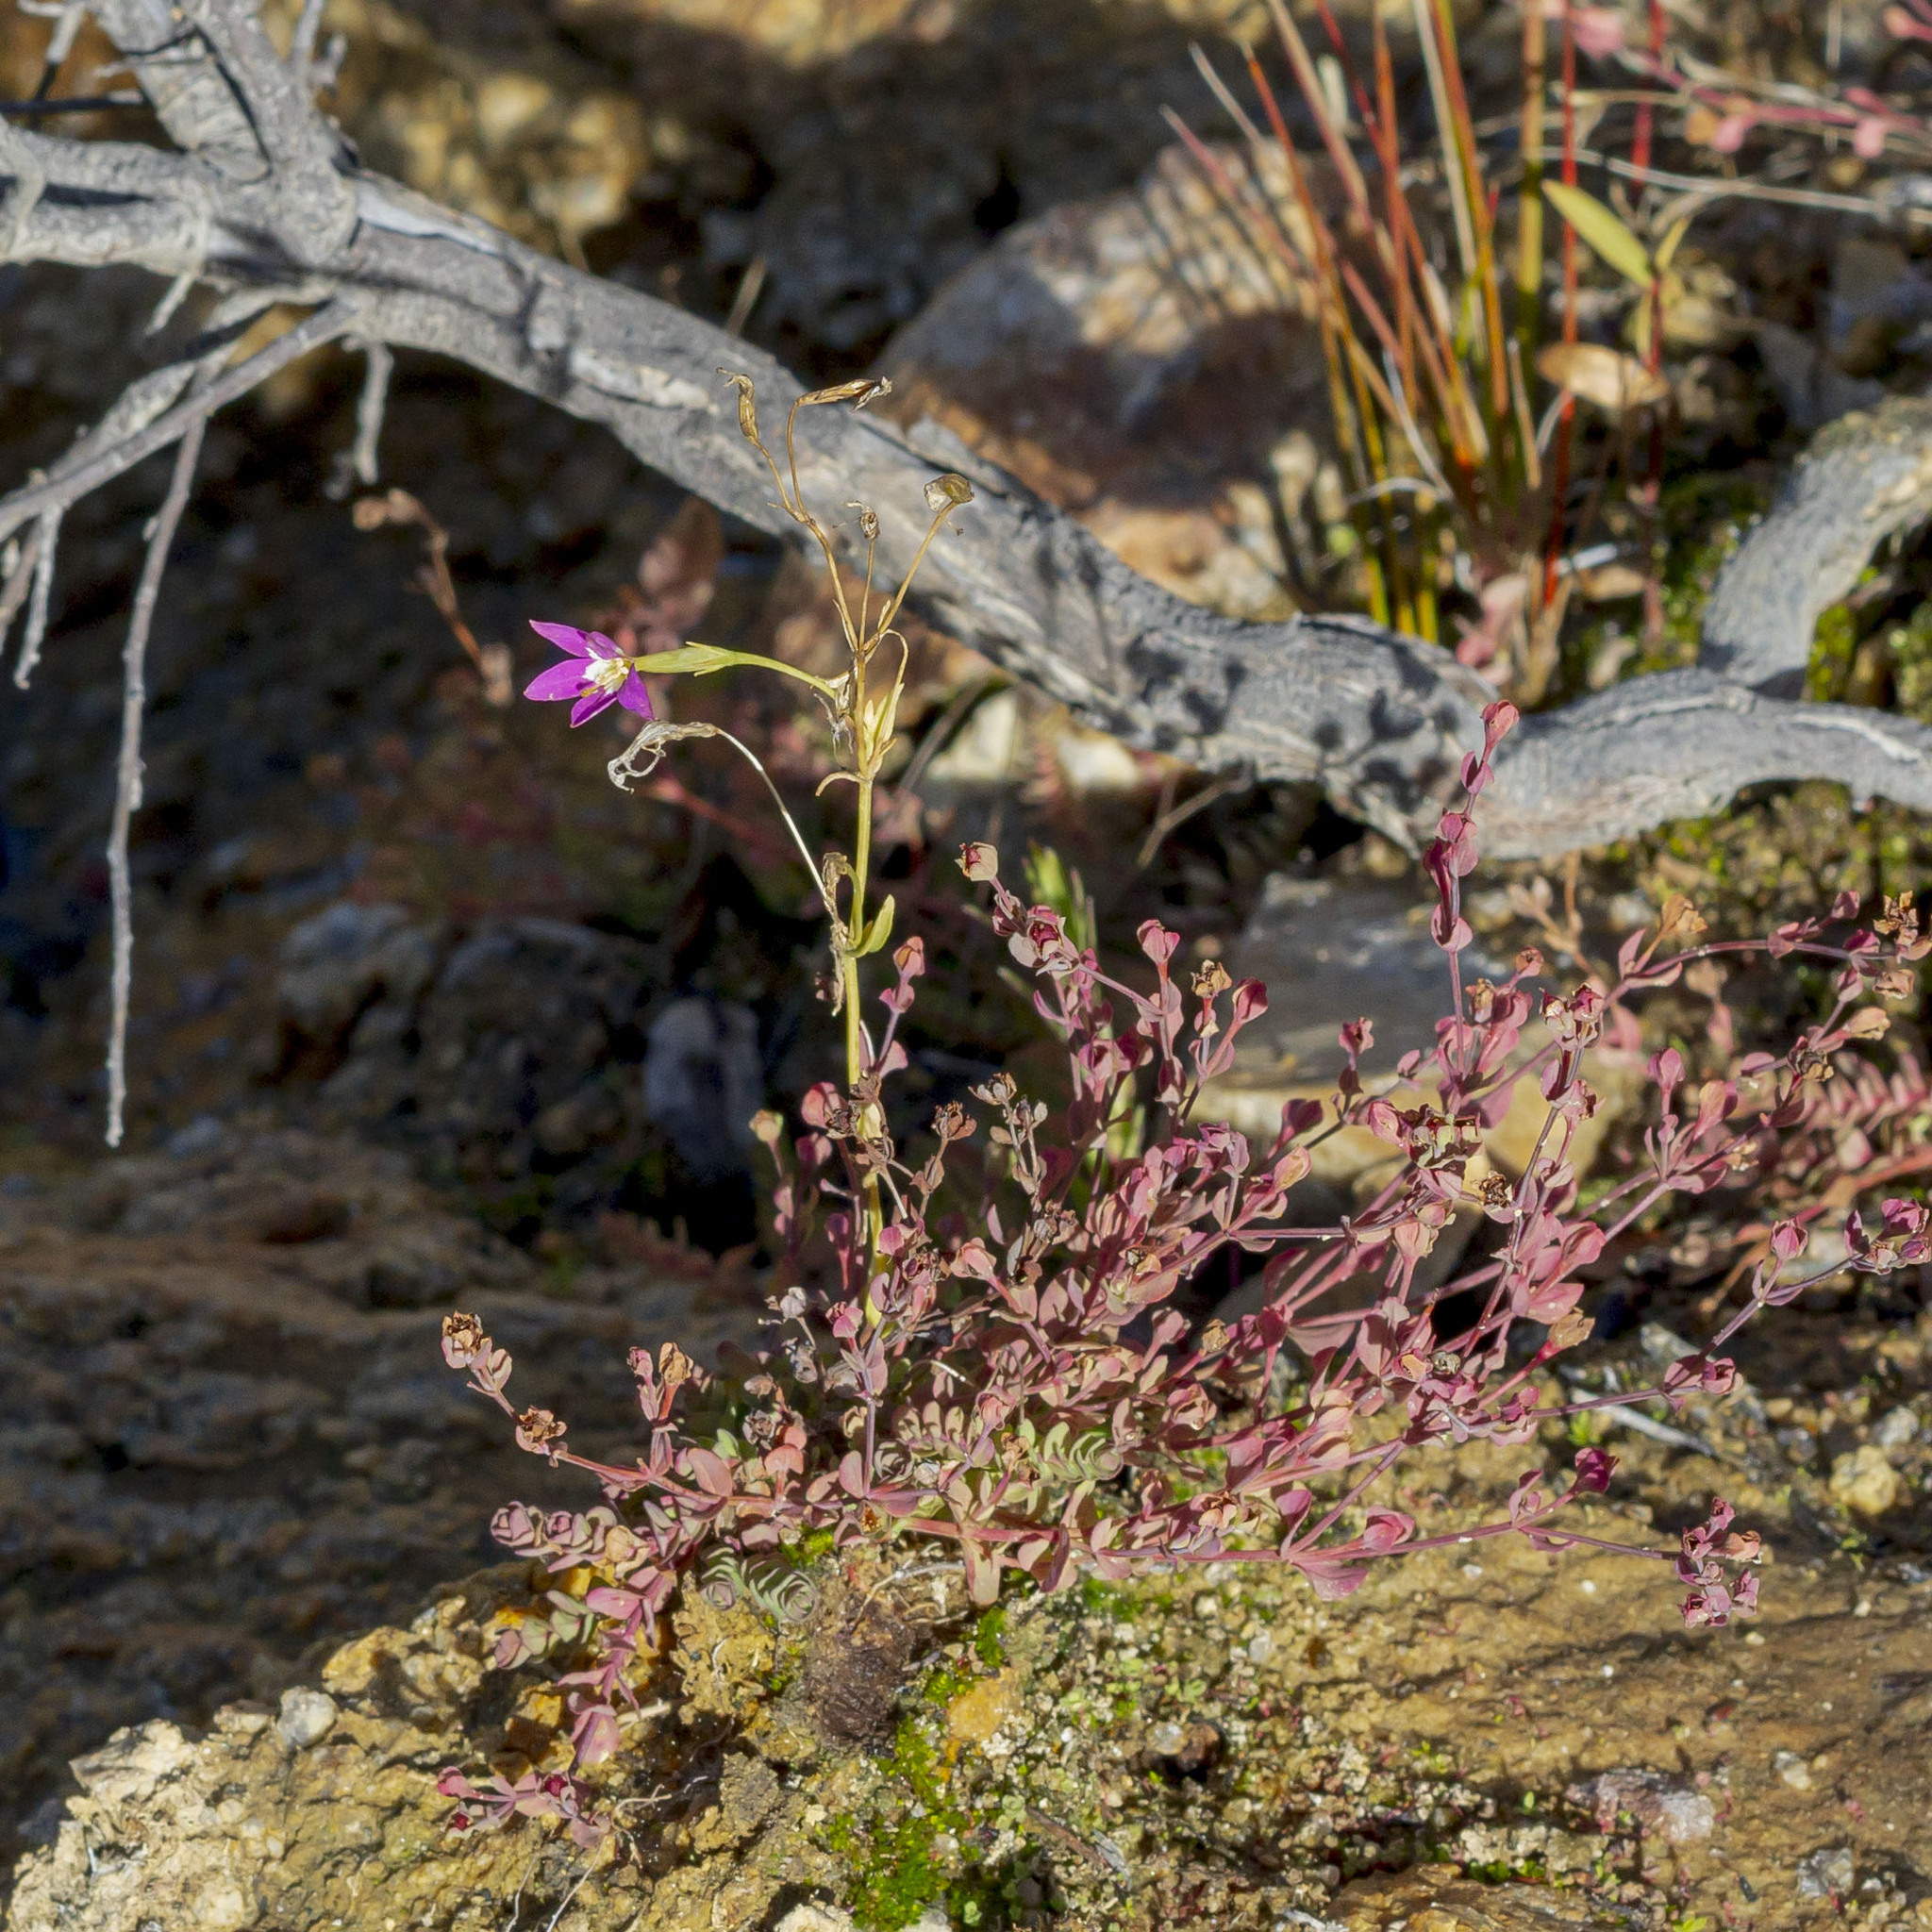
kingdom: Plantae
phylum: Tracheophyta
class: Magnoliopsida
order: Gentianales
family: Gentianaceae
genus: Zeltnera
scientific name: Zeltnera venusta
